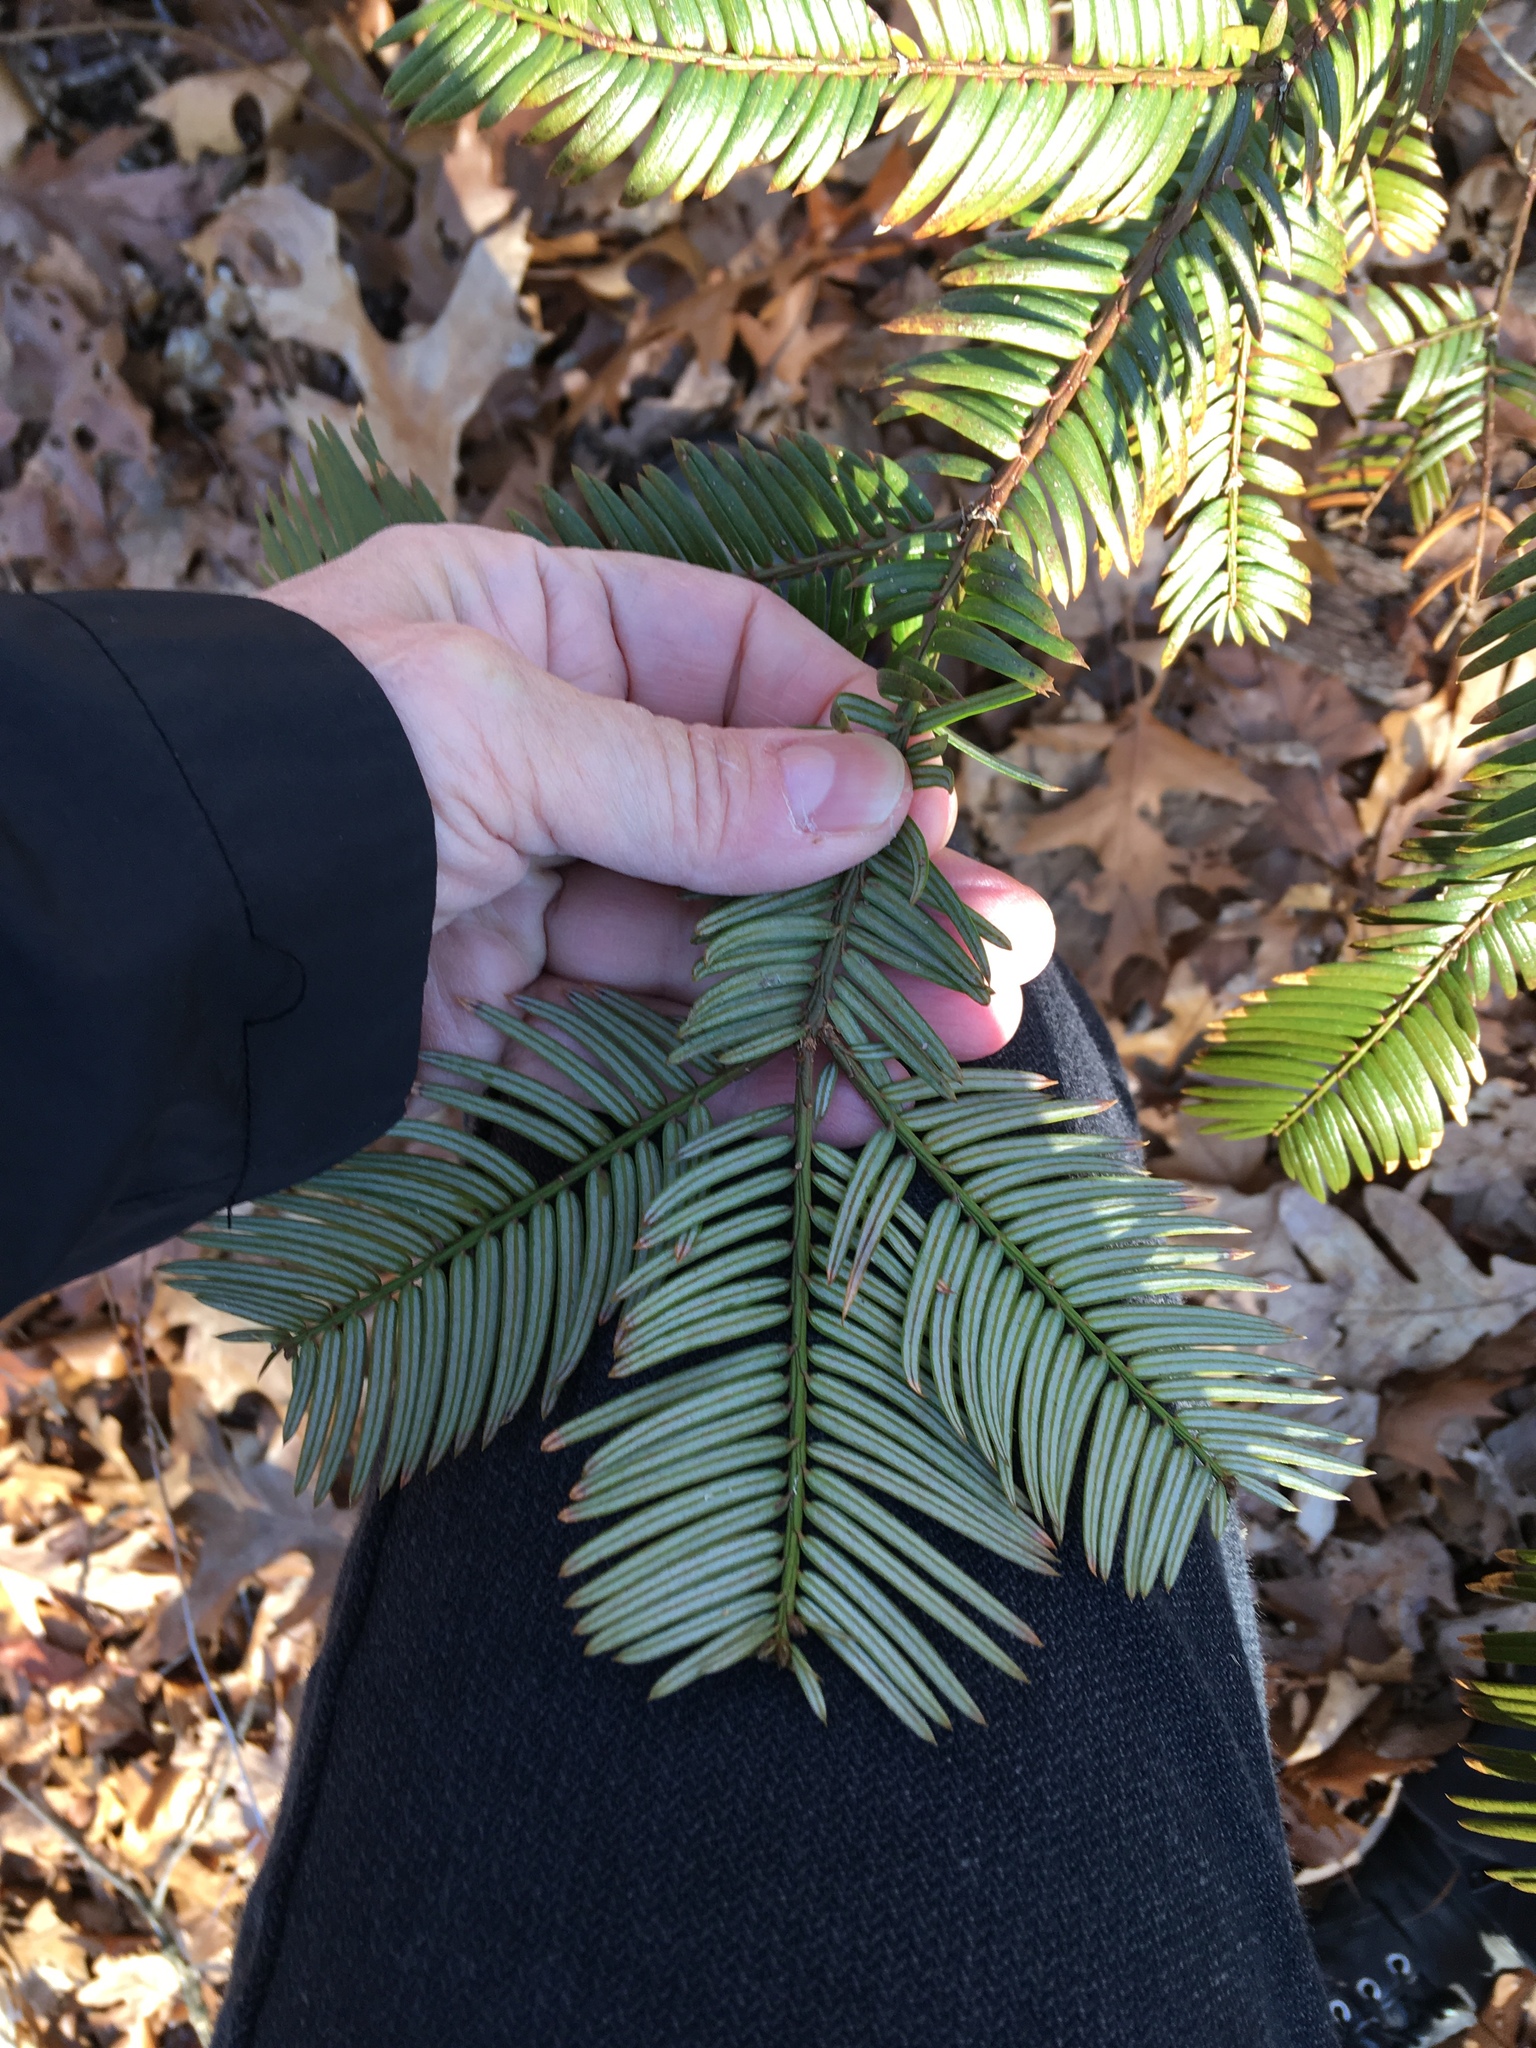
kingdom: Plantae
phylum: Tracheophyta
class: Pinopsida
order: Pinales
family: Cephalotaxaceae
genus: Cephalotaxus
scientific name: Cephalotaxus harringtonia
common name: Japanese plum-yew
